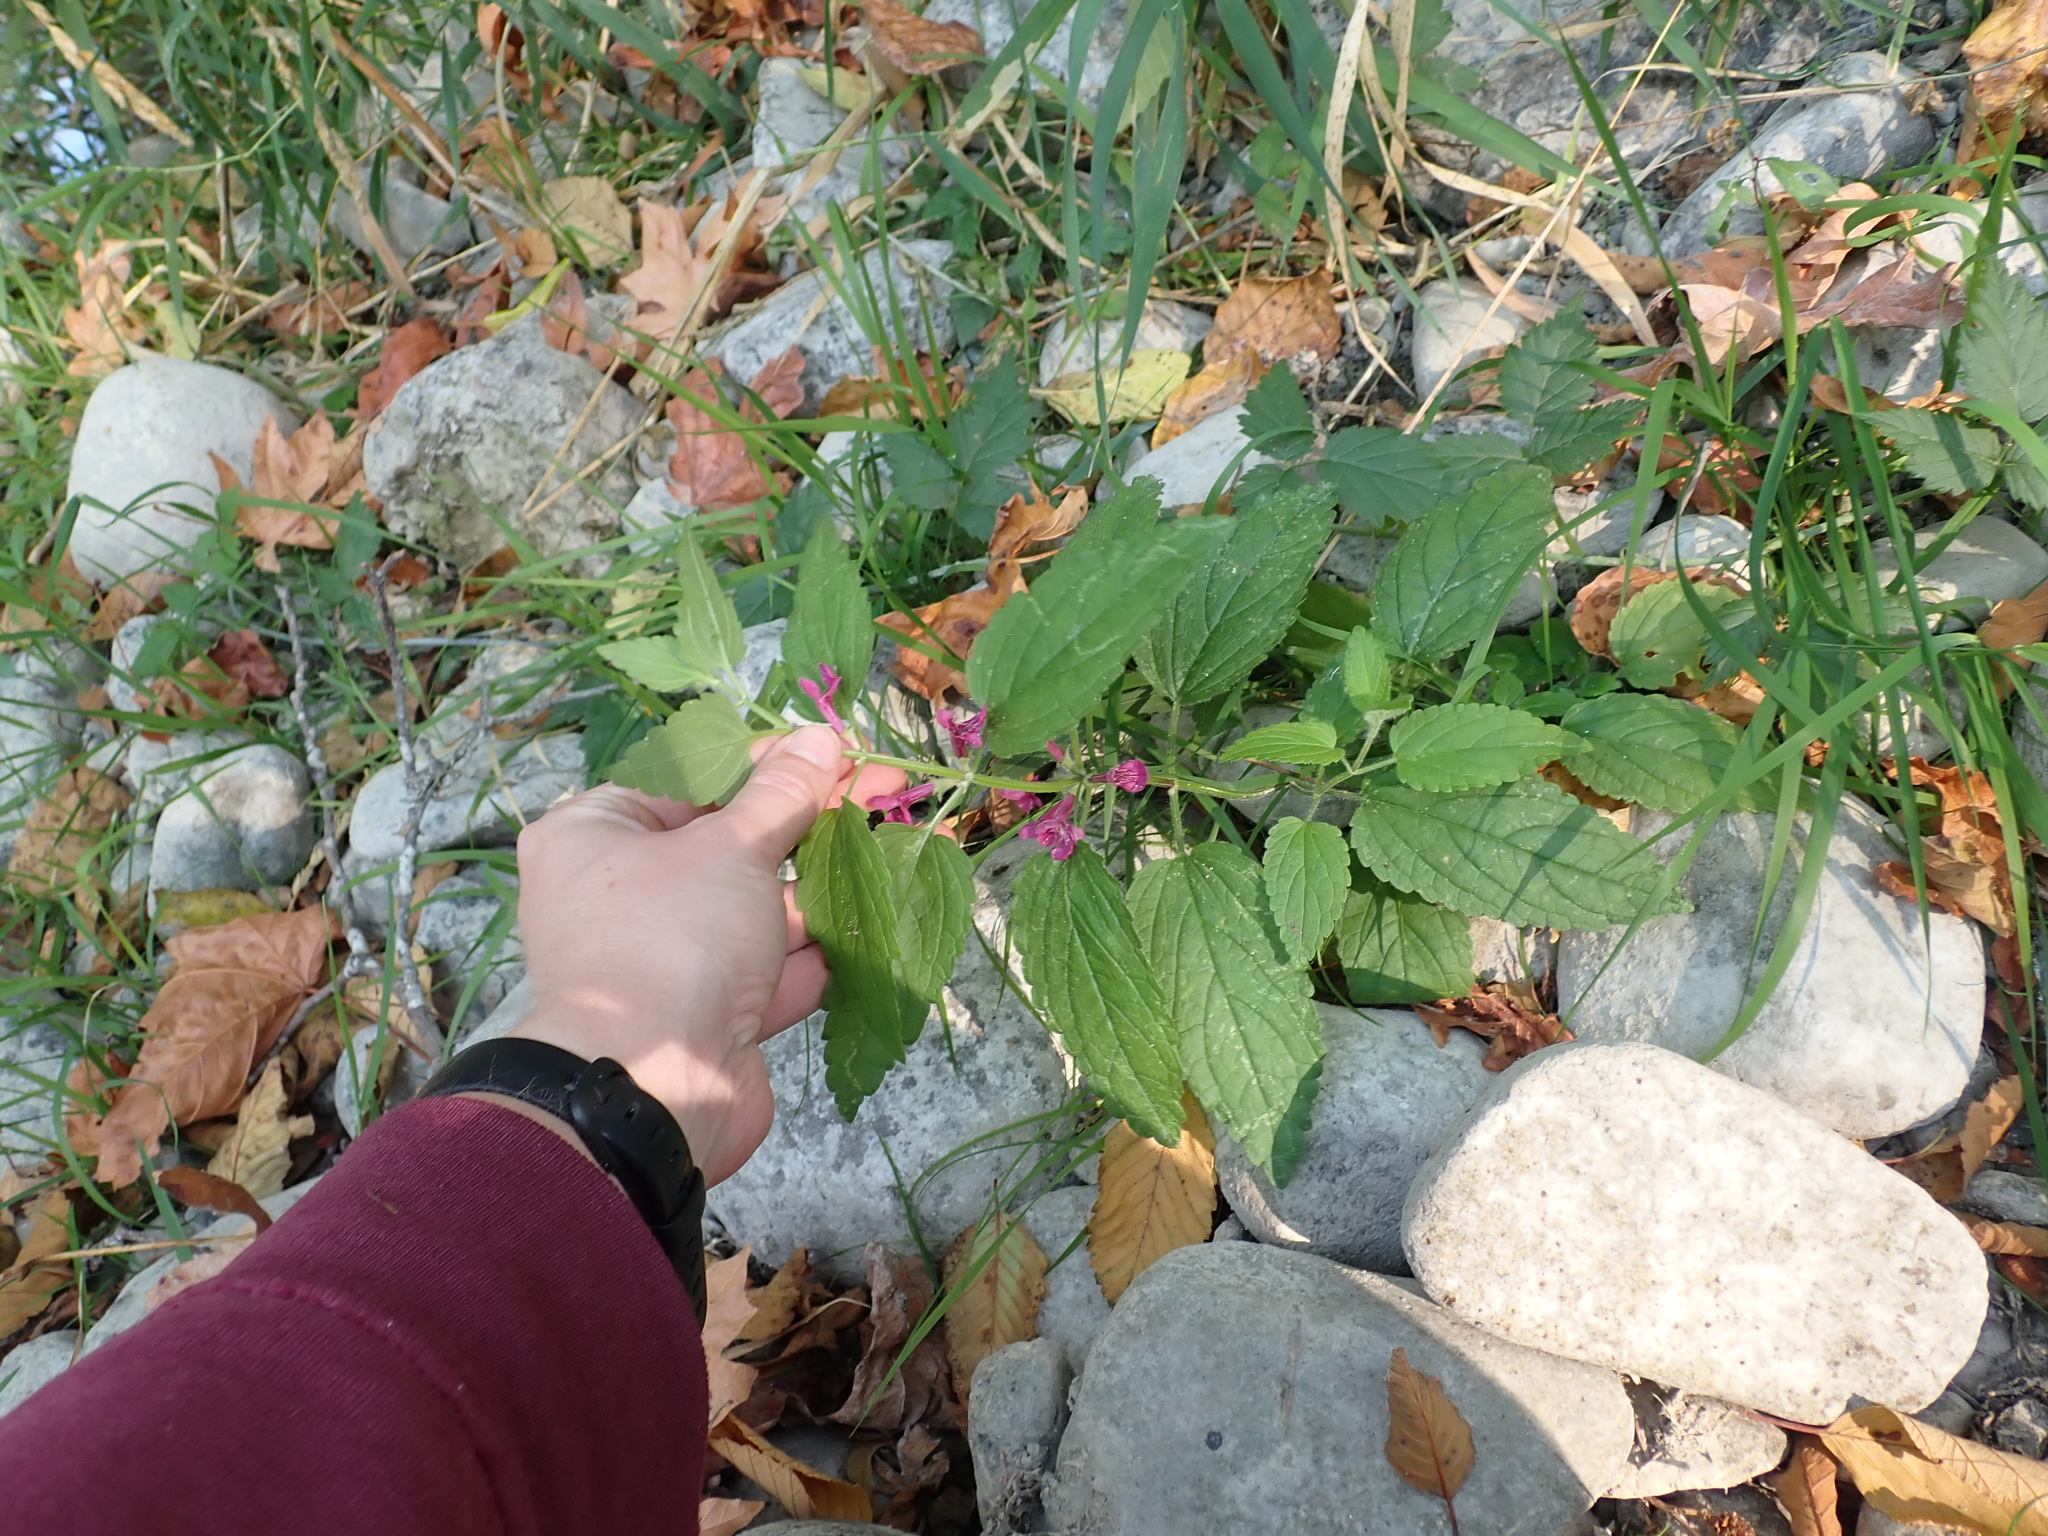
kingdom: Plantae
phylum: Tracheophyta
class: Magnoliopsida
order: Lamiales
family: Lamiaceae
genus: Stachys
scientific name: Stachys chamissonis
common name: Coastal hedge-nettle
